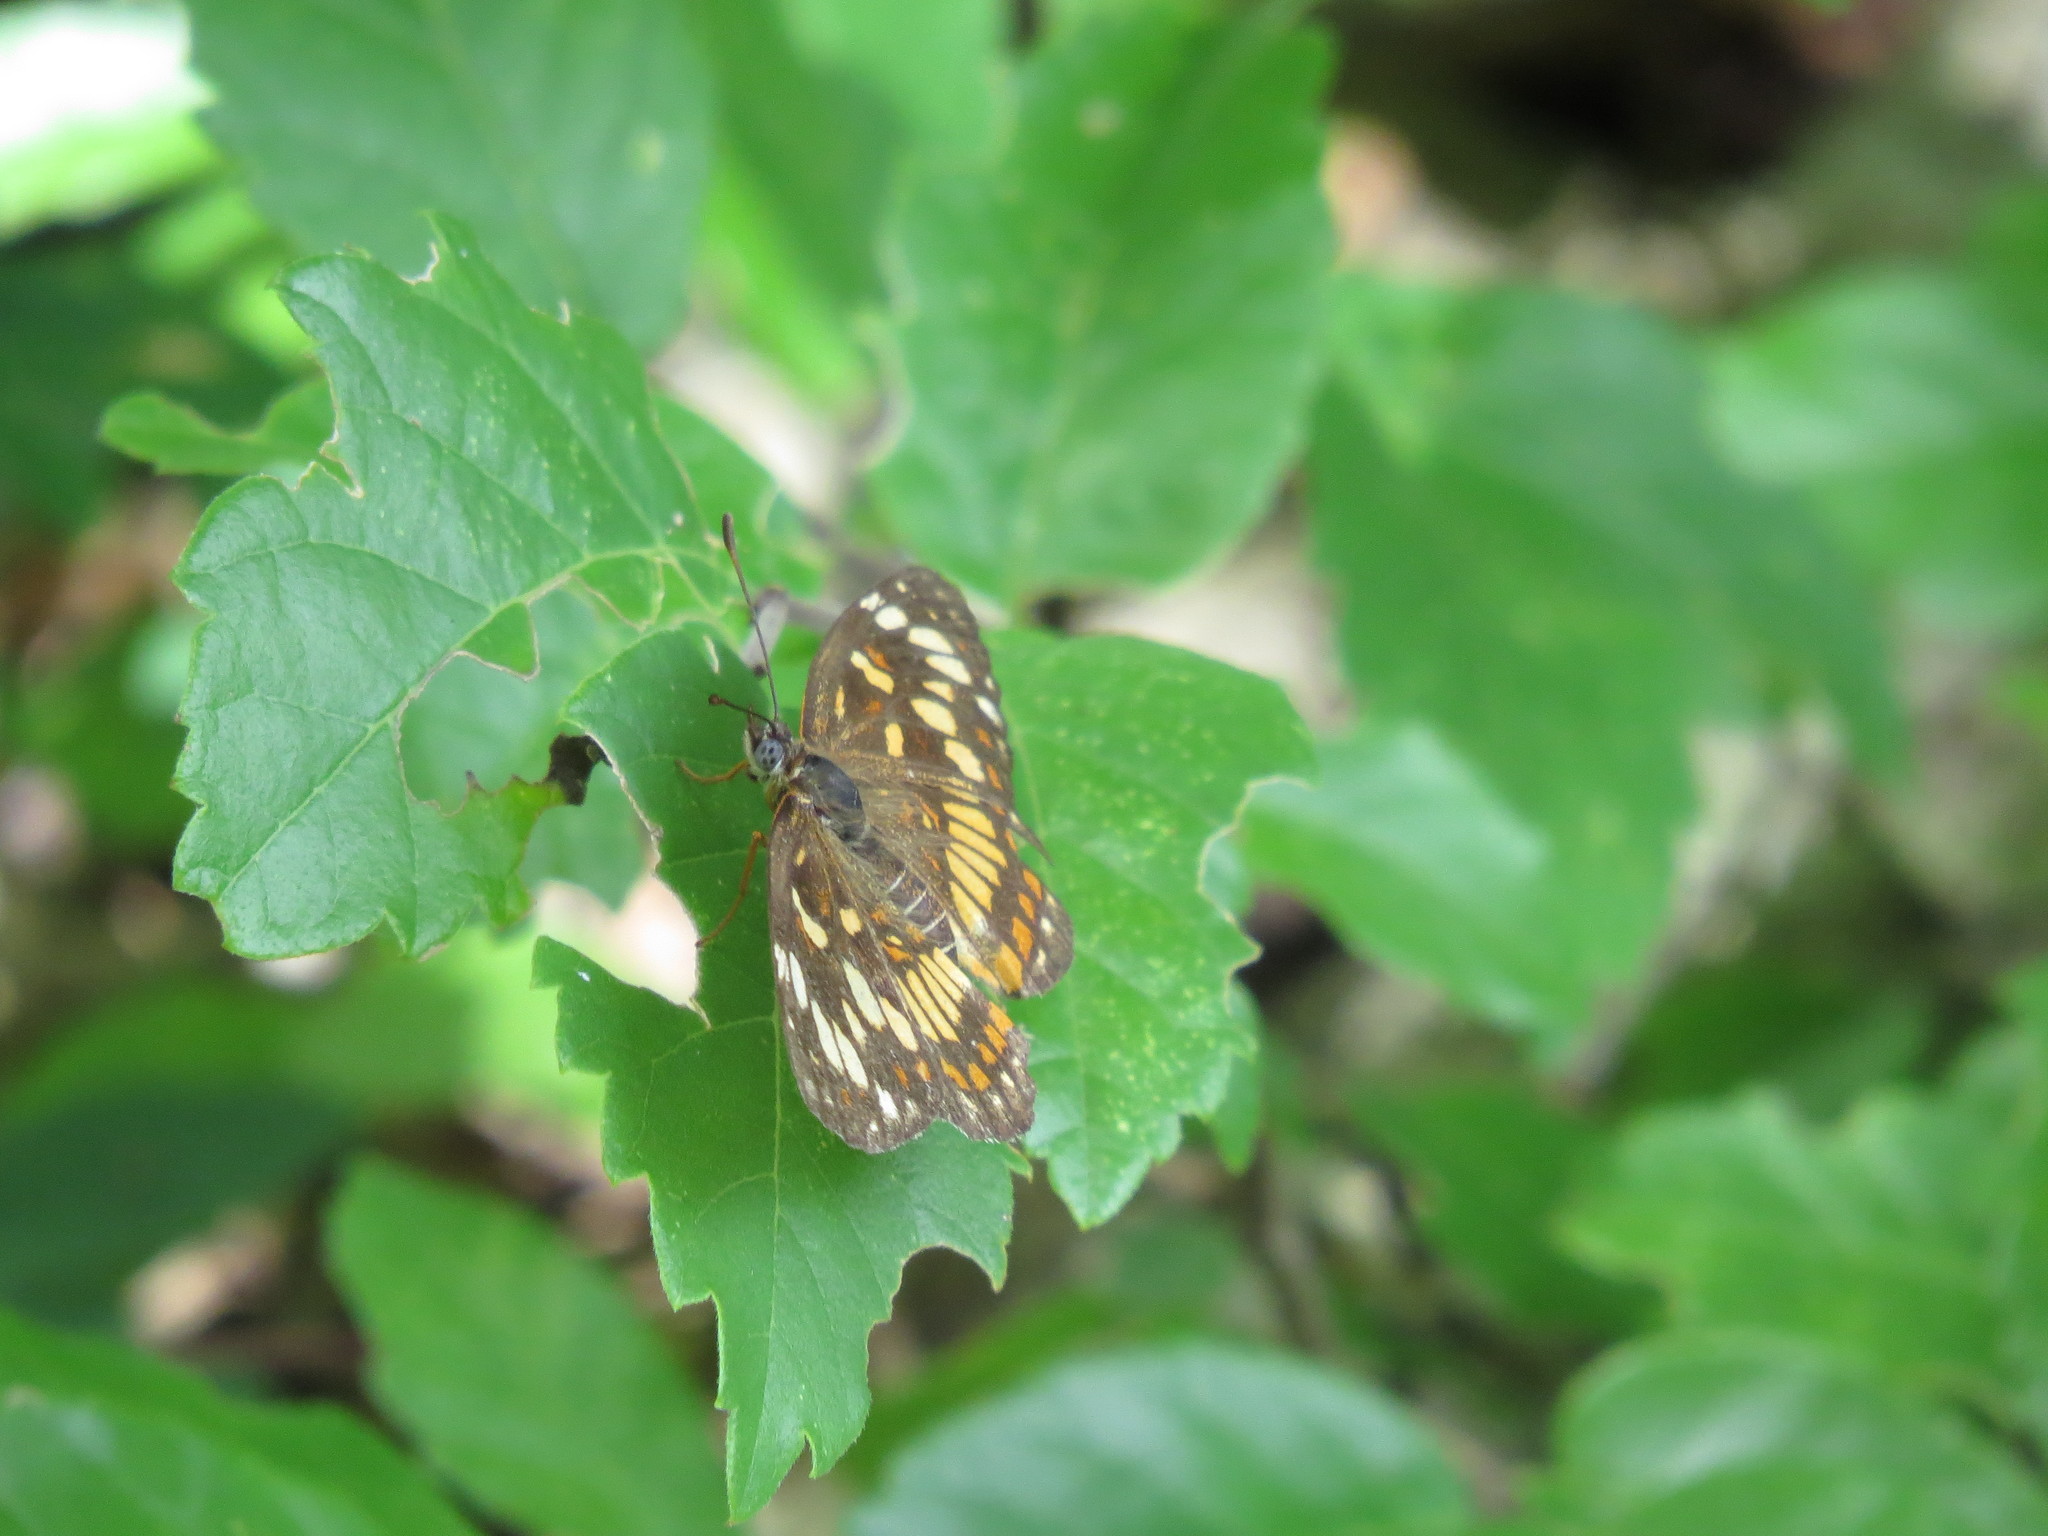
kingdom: Animalia
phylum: Arthropoda
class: Insecta
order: Lepidoptera
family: Nymphalidae
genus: Thessalia
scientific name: Thessalia theona
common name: Nymphalid moth
